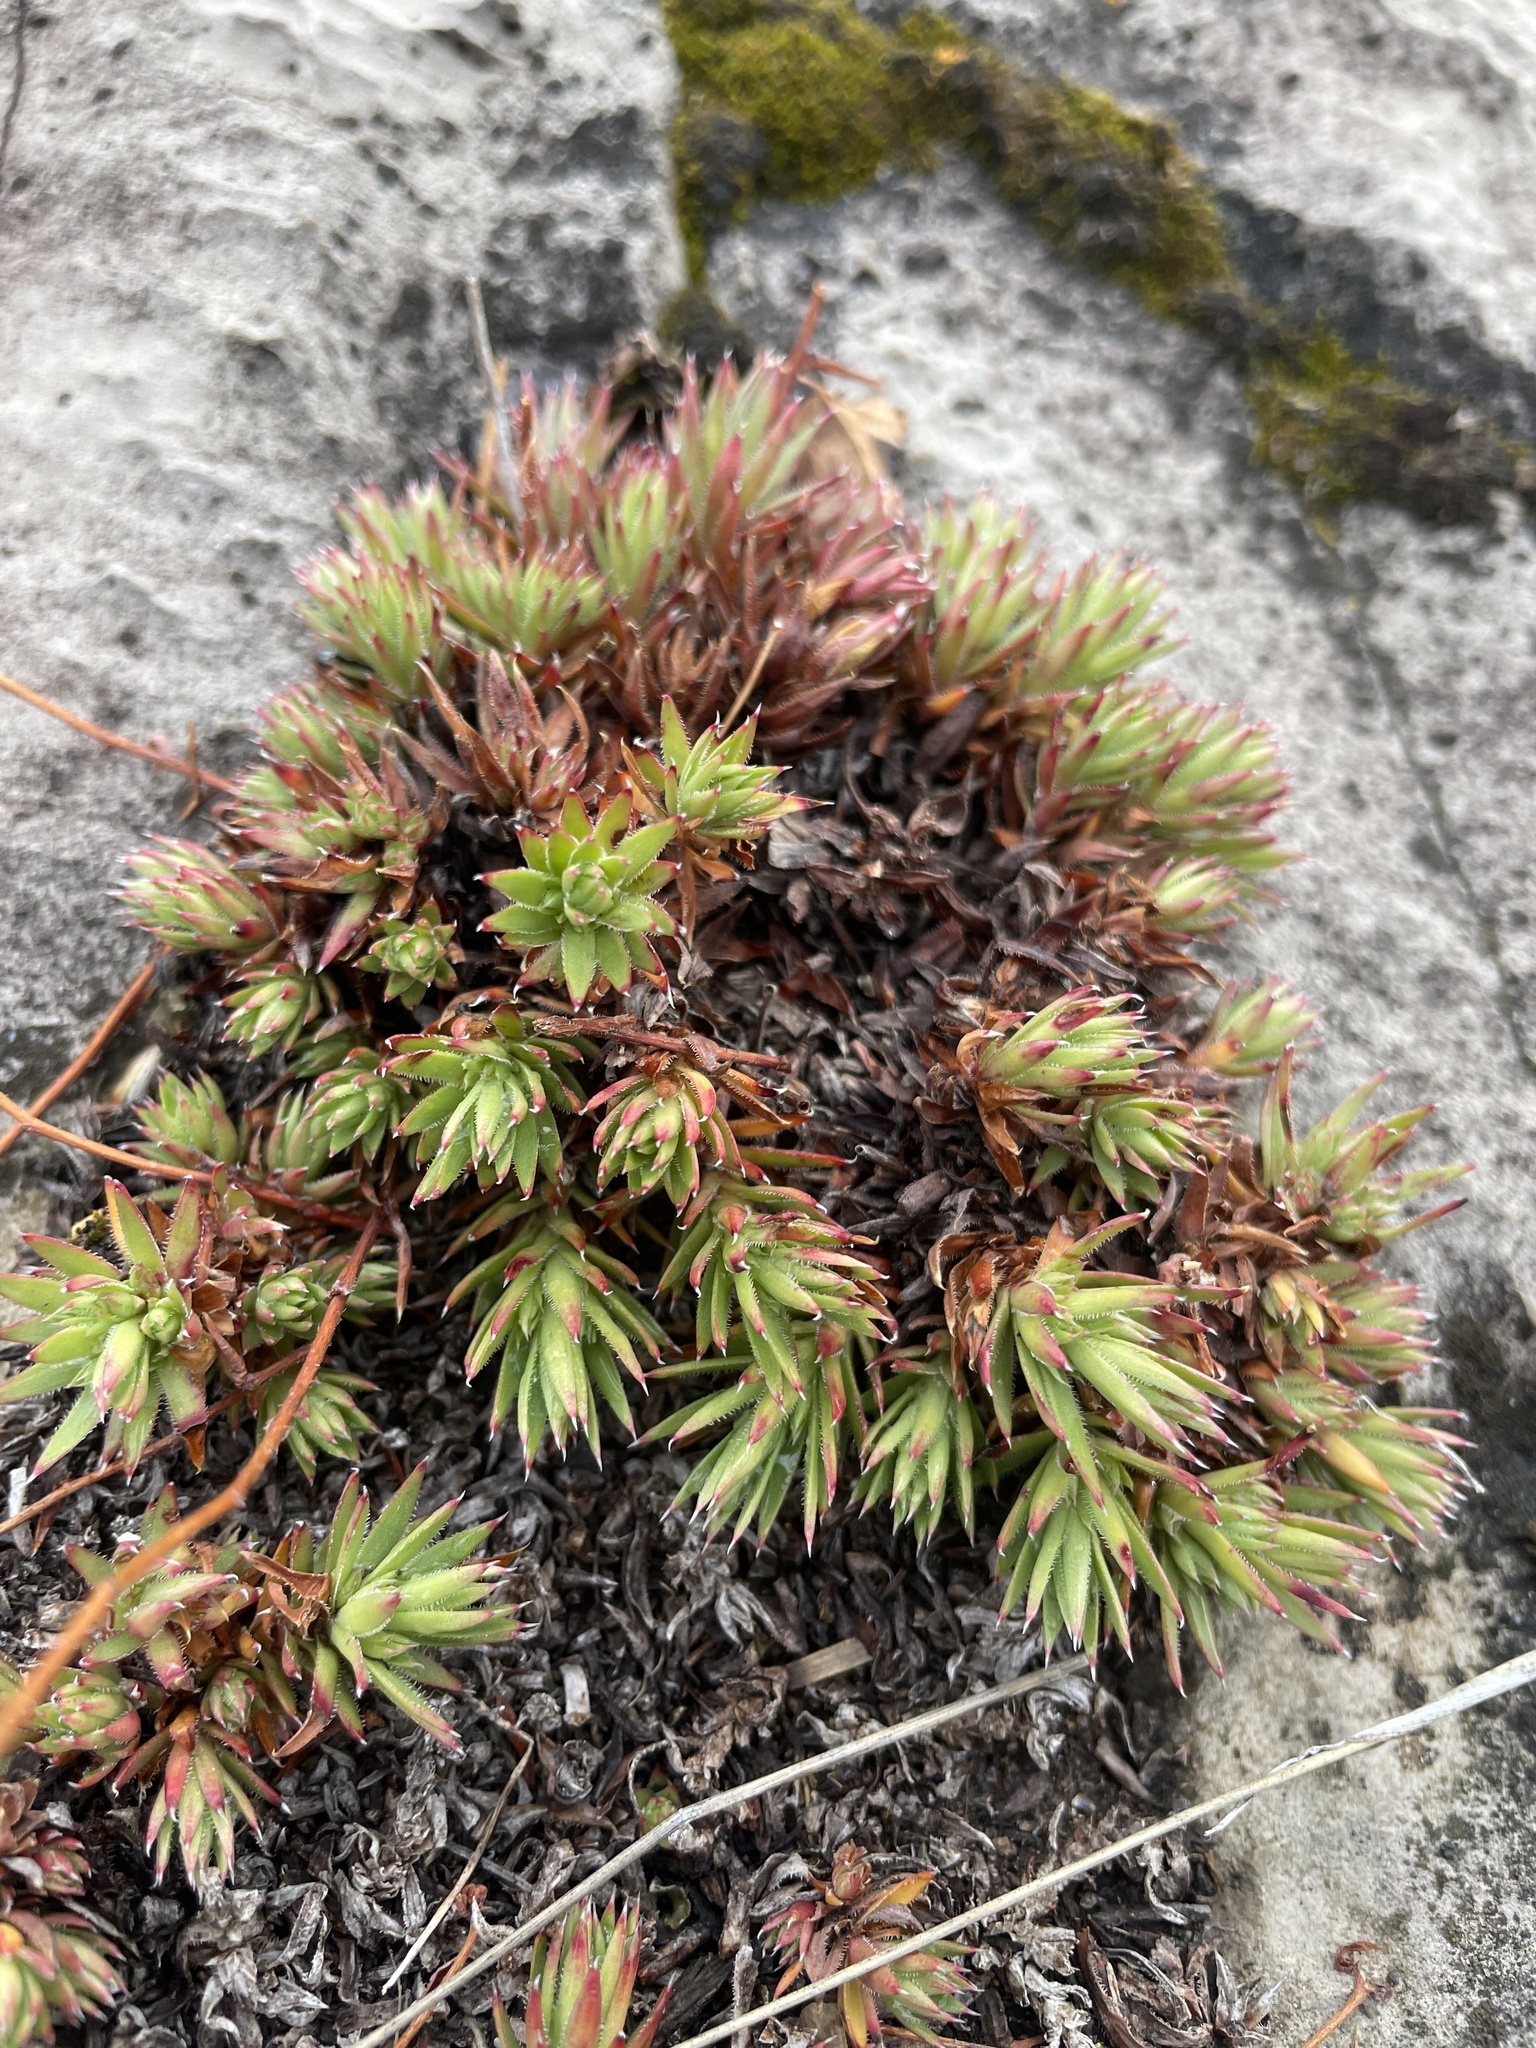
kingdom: Plantae
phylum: Tracheophyta
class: Magnoliopsida
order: Saxifragales
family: Saxifragaceae
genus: Saxifraga
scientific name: Saxifraga bronchialis
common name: Matted saxifrage
